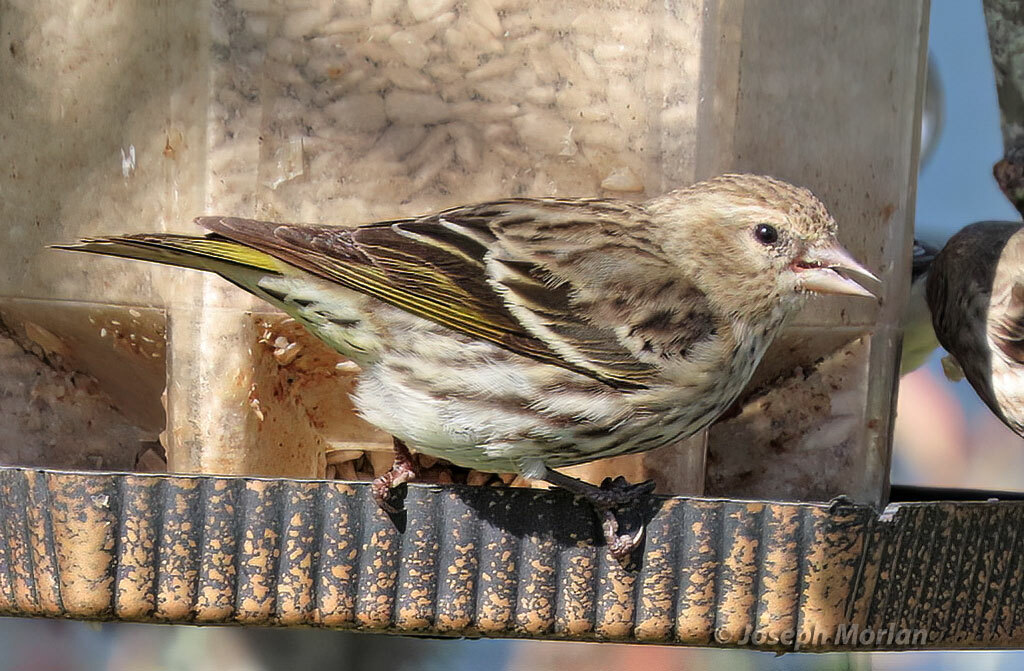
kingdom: Animalia
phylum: Chordata
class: Aves
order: Passeriformes
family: Fringillidae
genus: Spinus
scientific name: Spinus pinus
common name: Pine siskin
